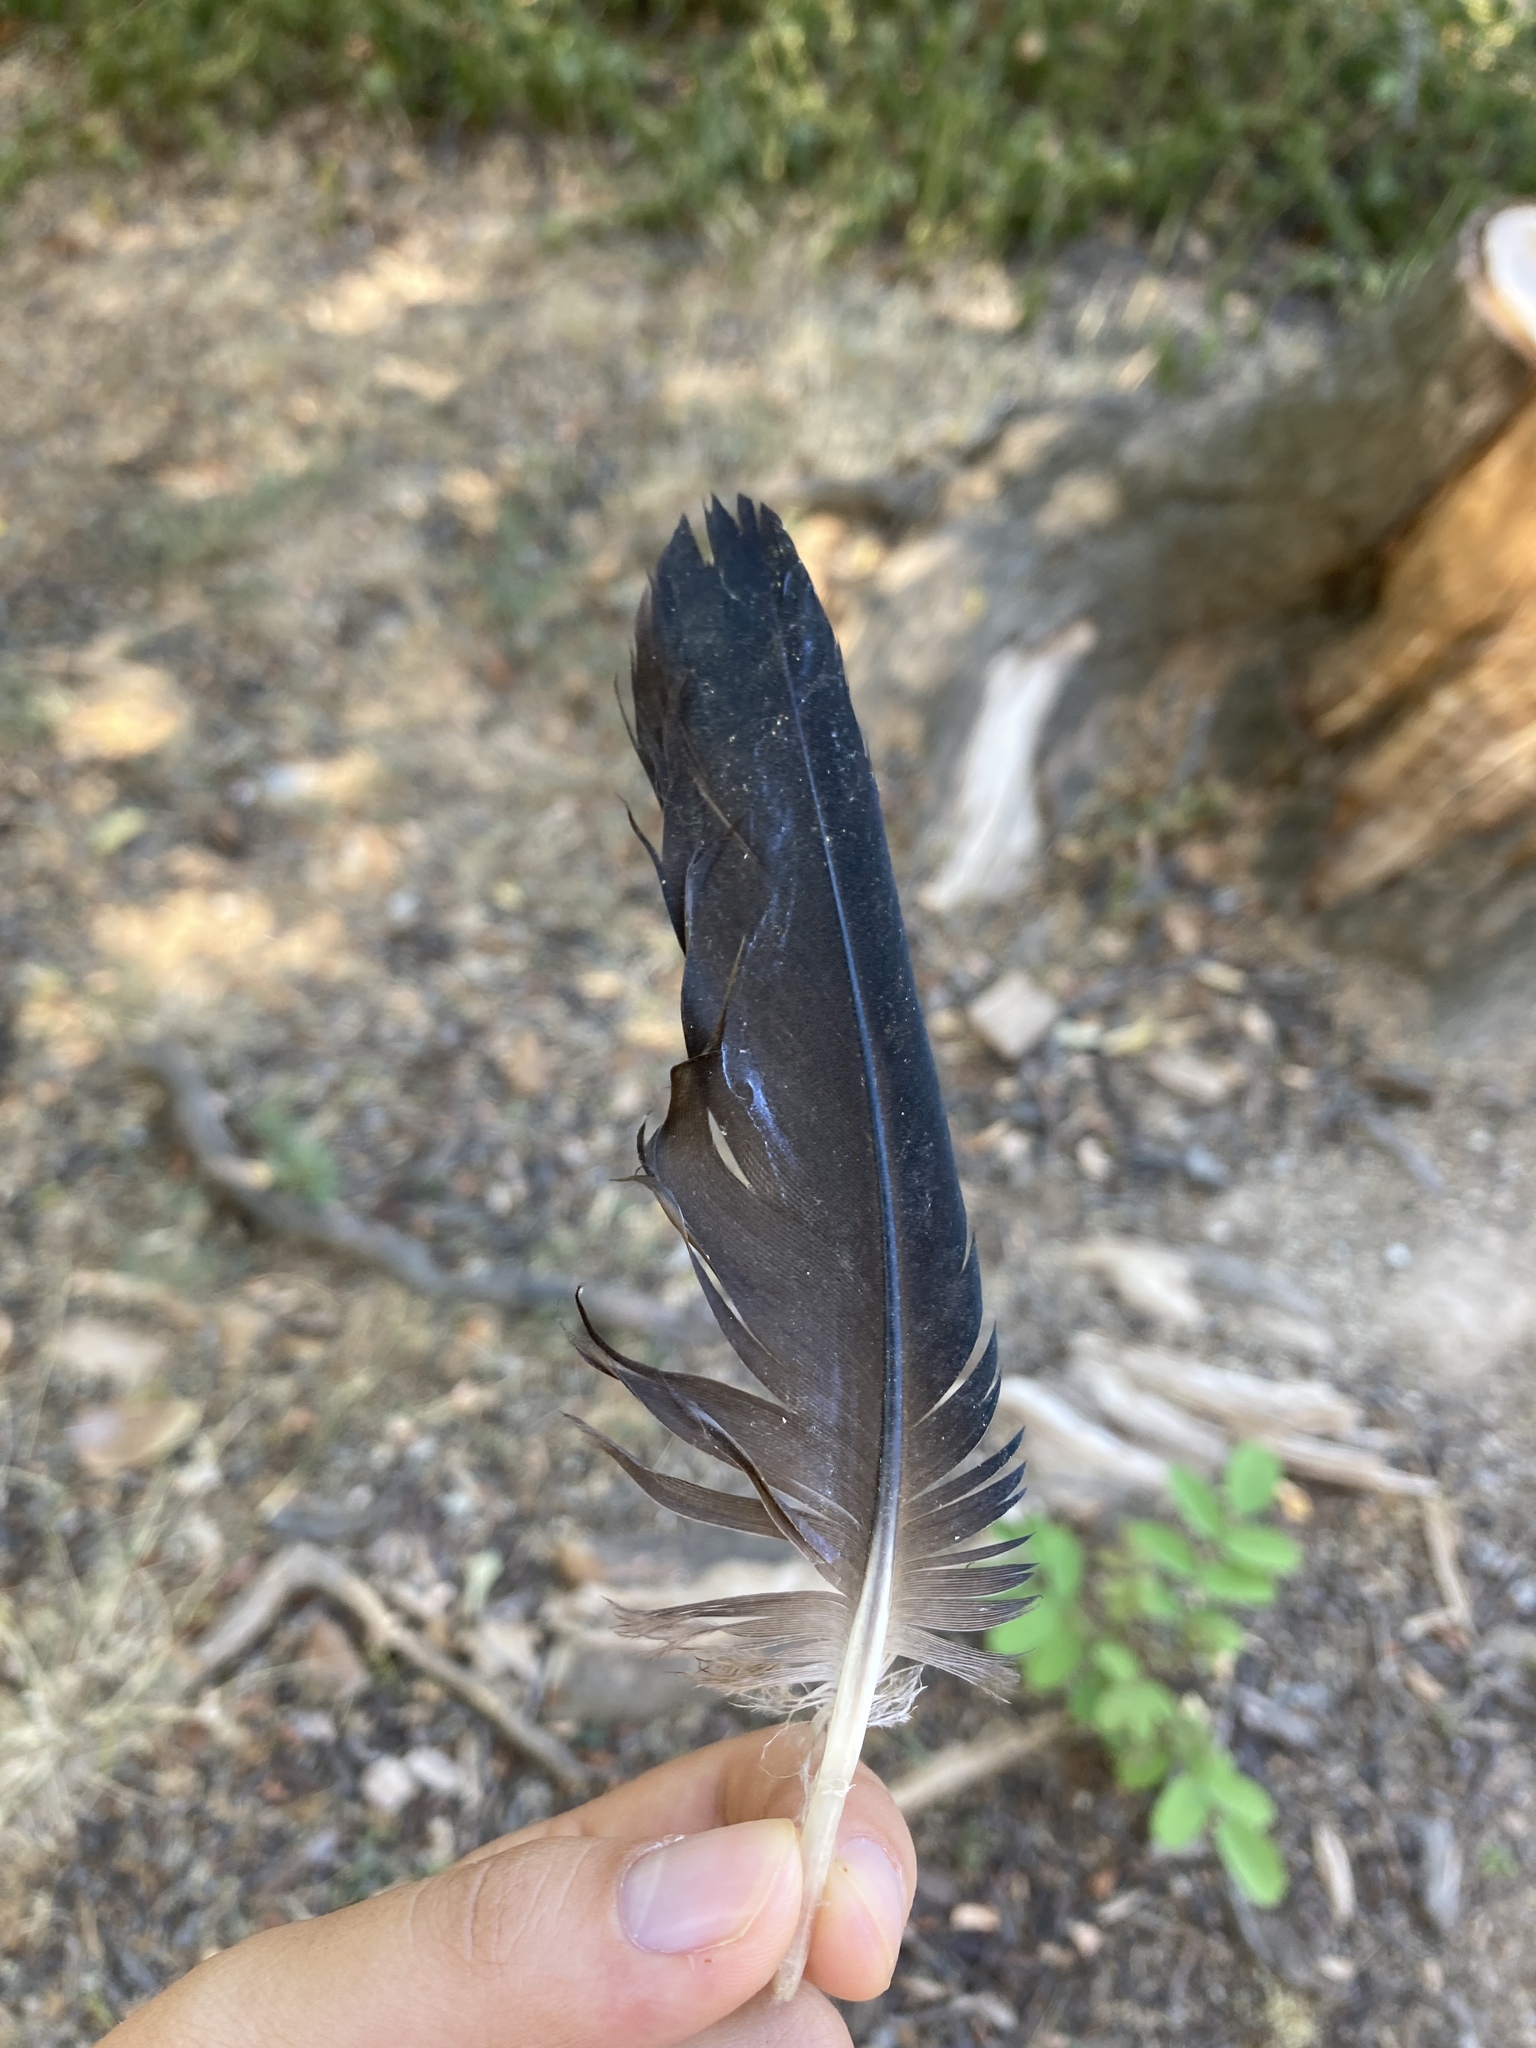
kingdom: Animalia
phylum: Chordata
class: Aves
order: Anseriformes
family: Anatidae
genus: Tadorna
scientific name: Tadorna ferruginea
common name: Ruddy shelduck
